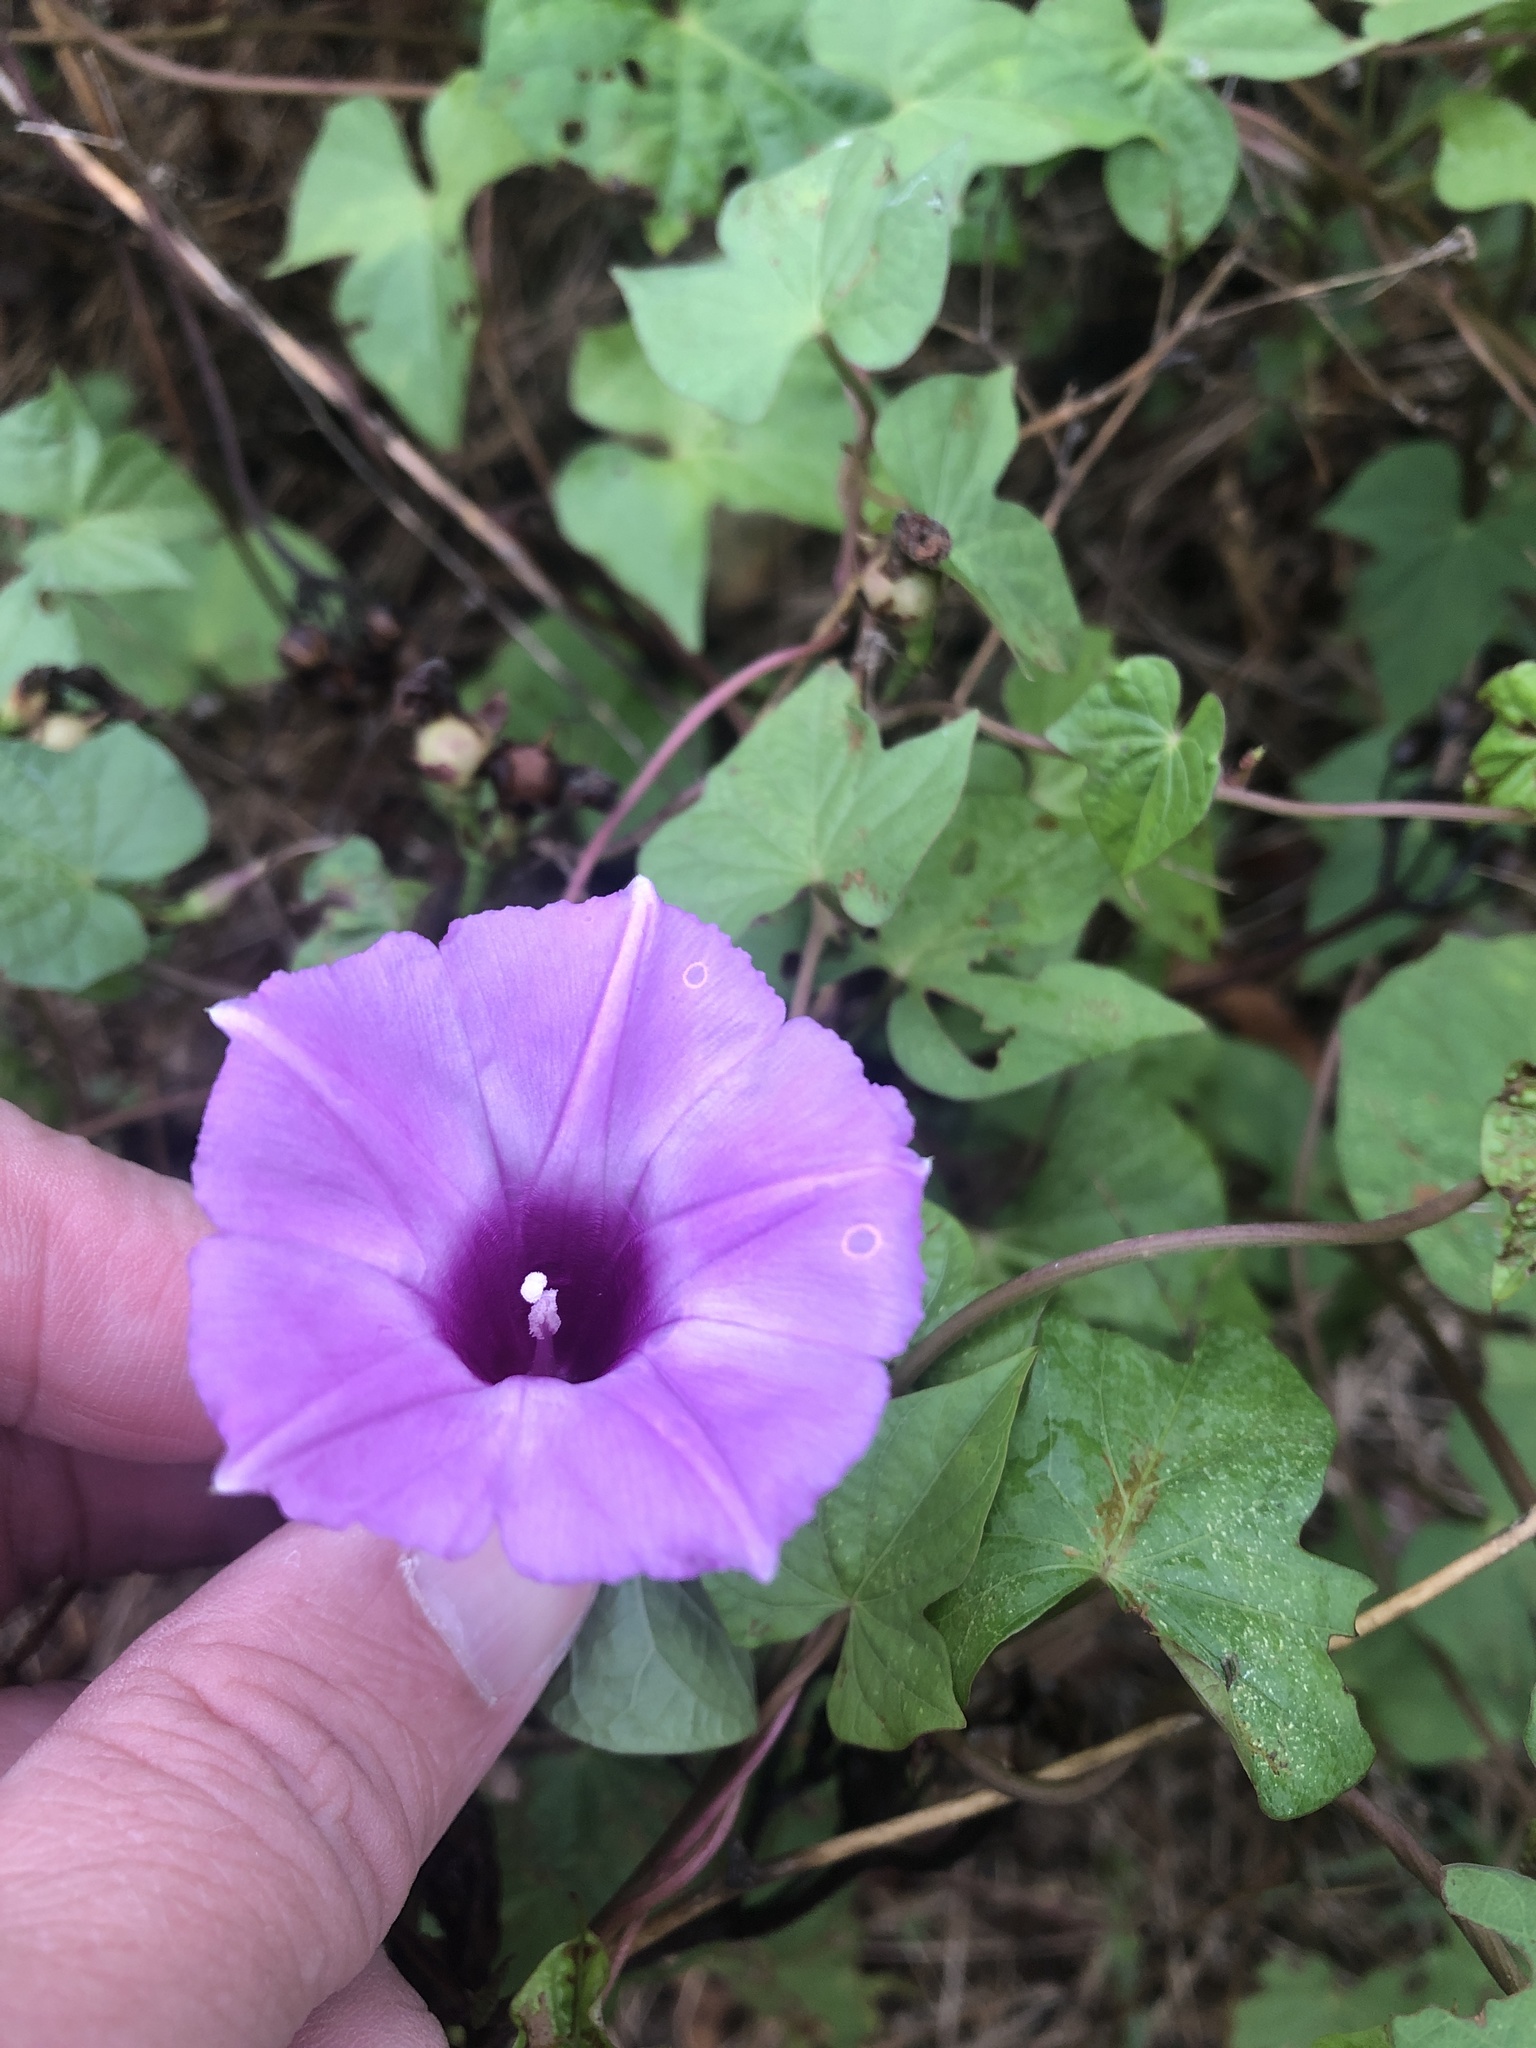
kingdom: Plantae
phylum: Tracheophyta
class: Magnoliopsida
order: Solanales
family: Convolvulaceae
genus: Ipomoea
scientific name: Ipomoea cordatotriloba
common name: Cotton morning glory
